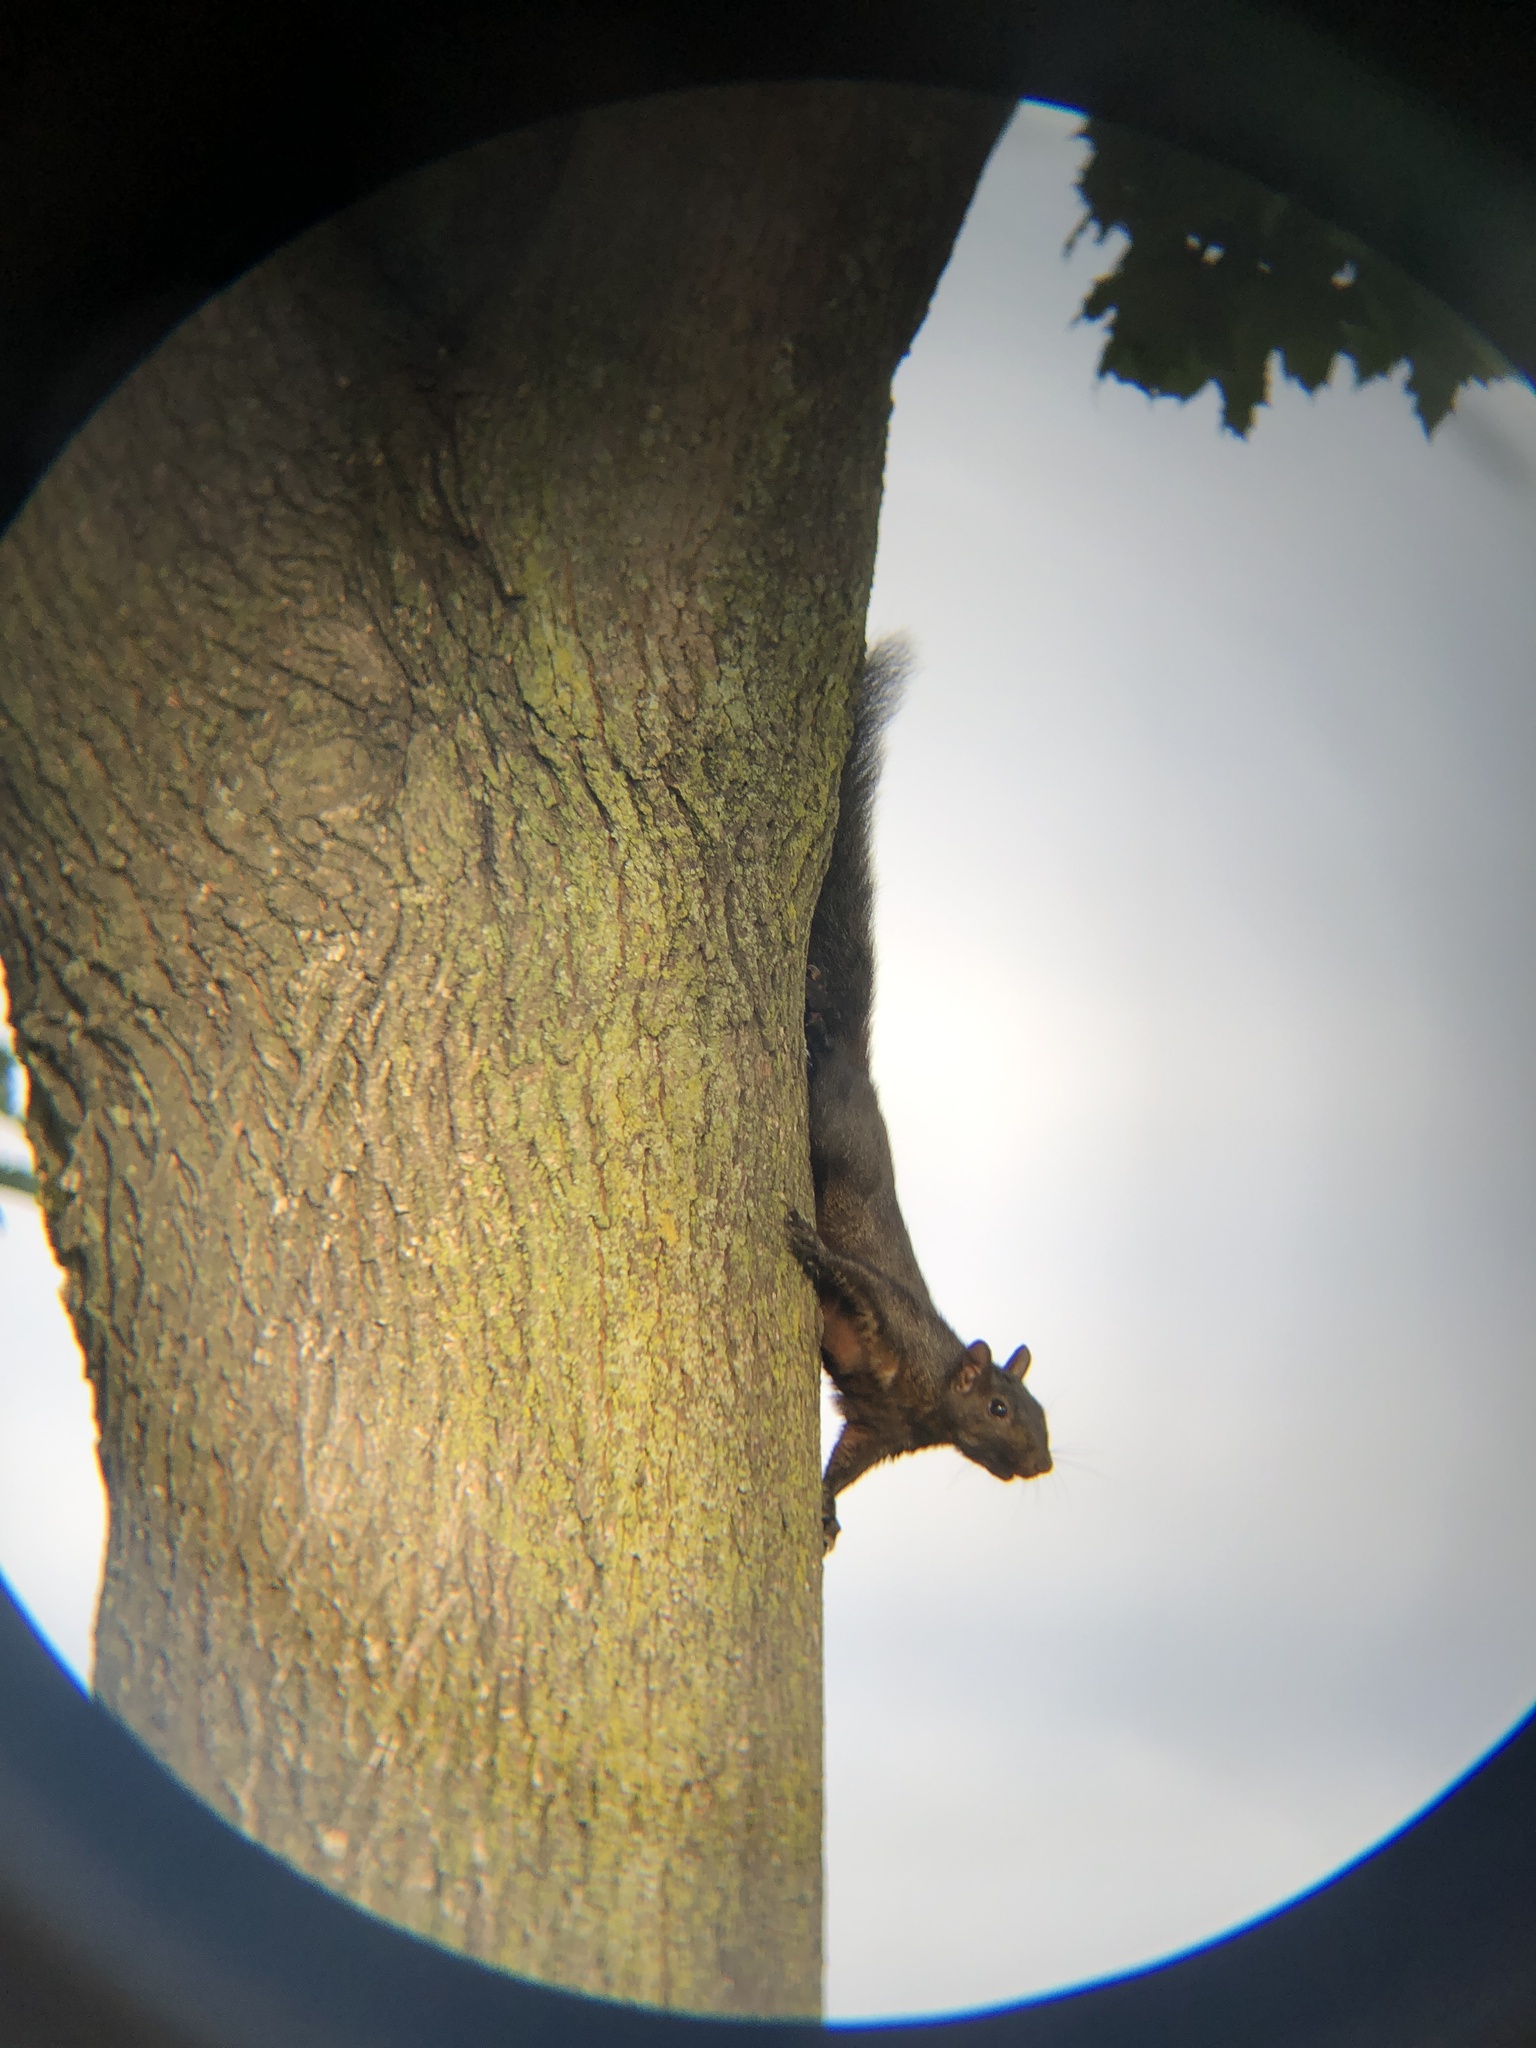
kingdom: Animalia
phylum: Chordata
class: Mammalia
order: Rodentia
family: Sciuridae
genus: Sciurus
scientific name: Sciurus carolinensis
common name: Eastern gray squirrel
